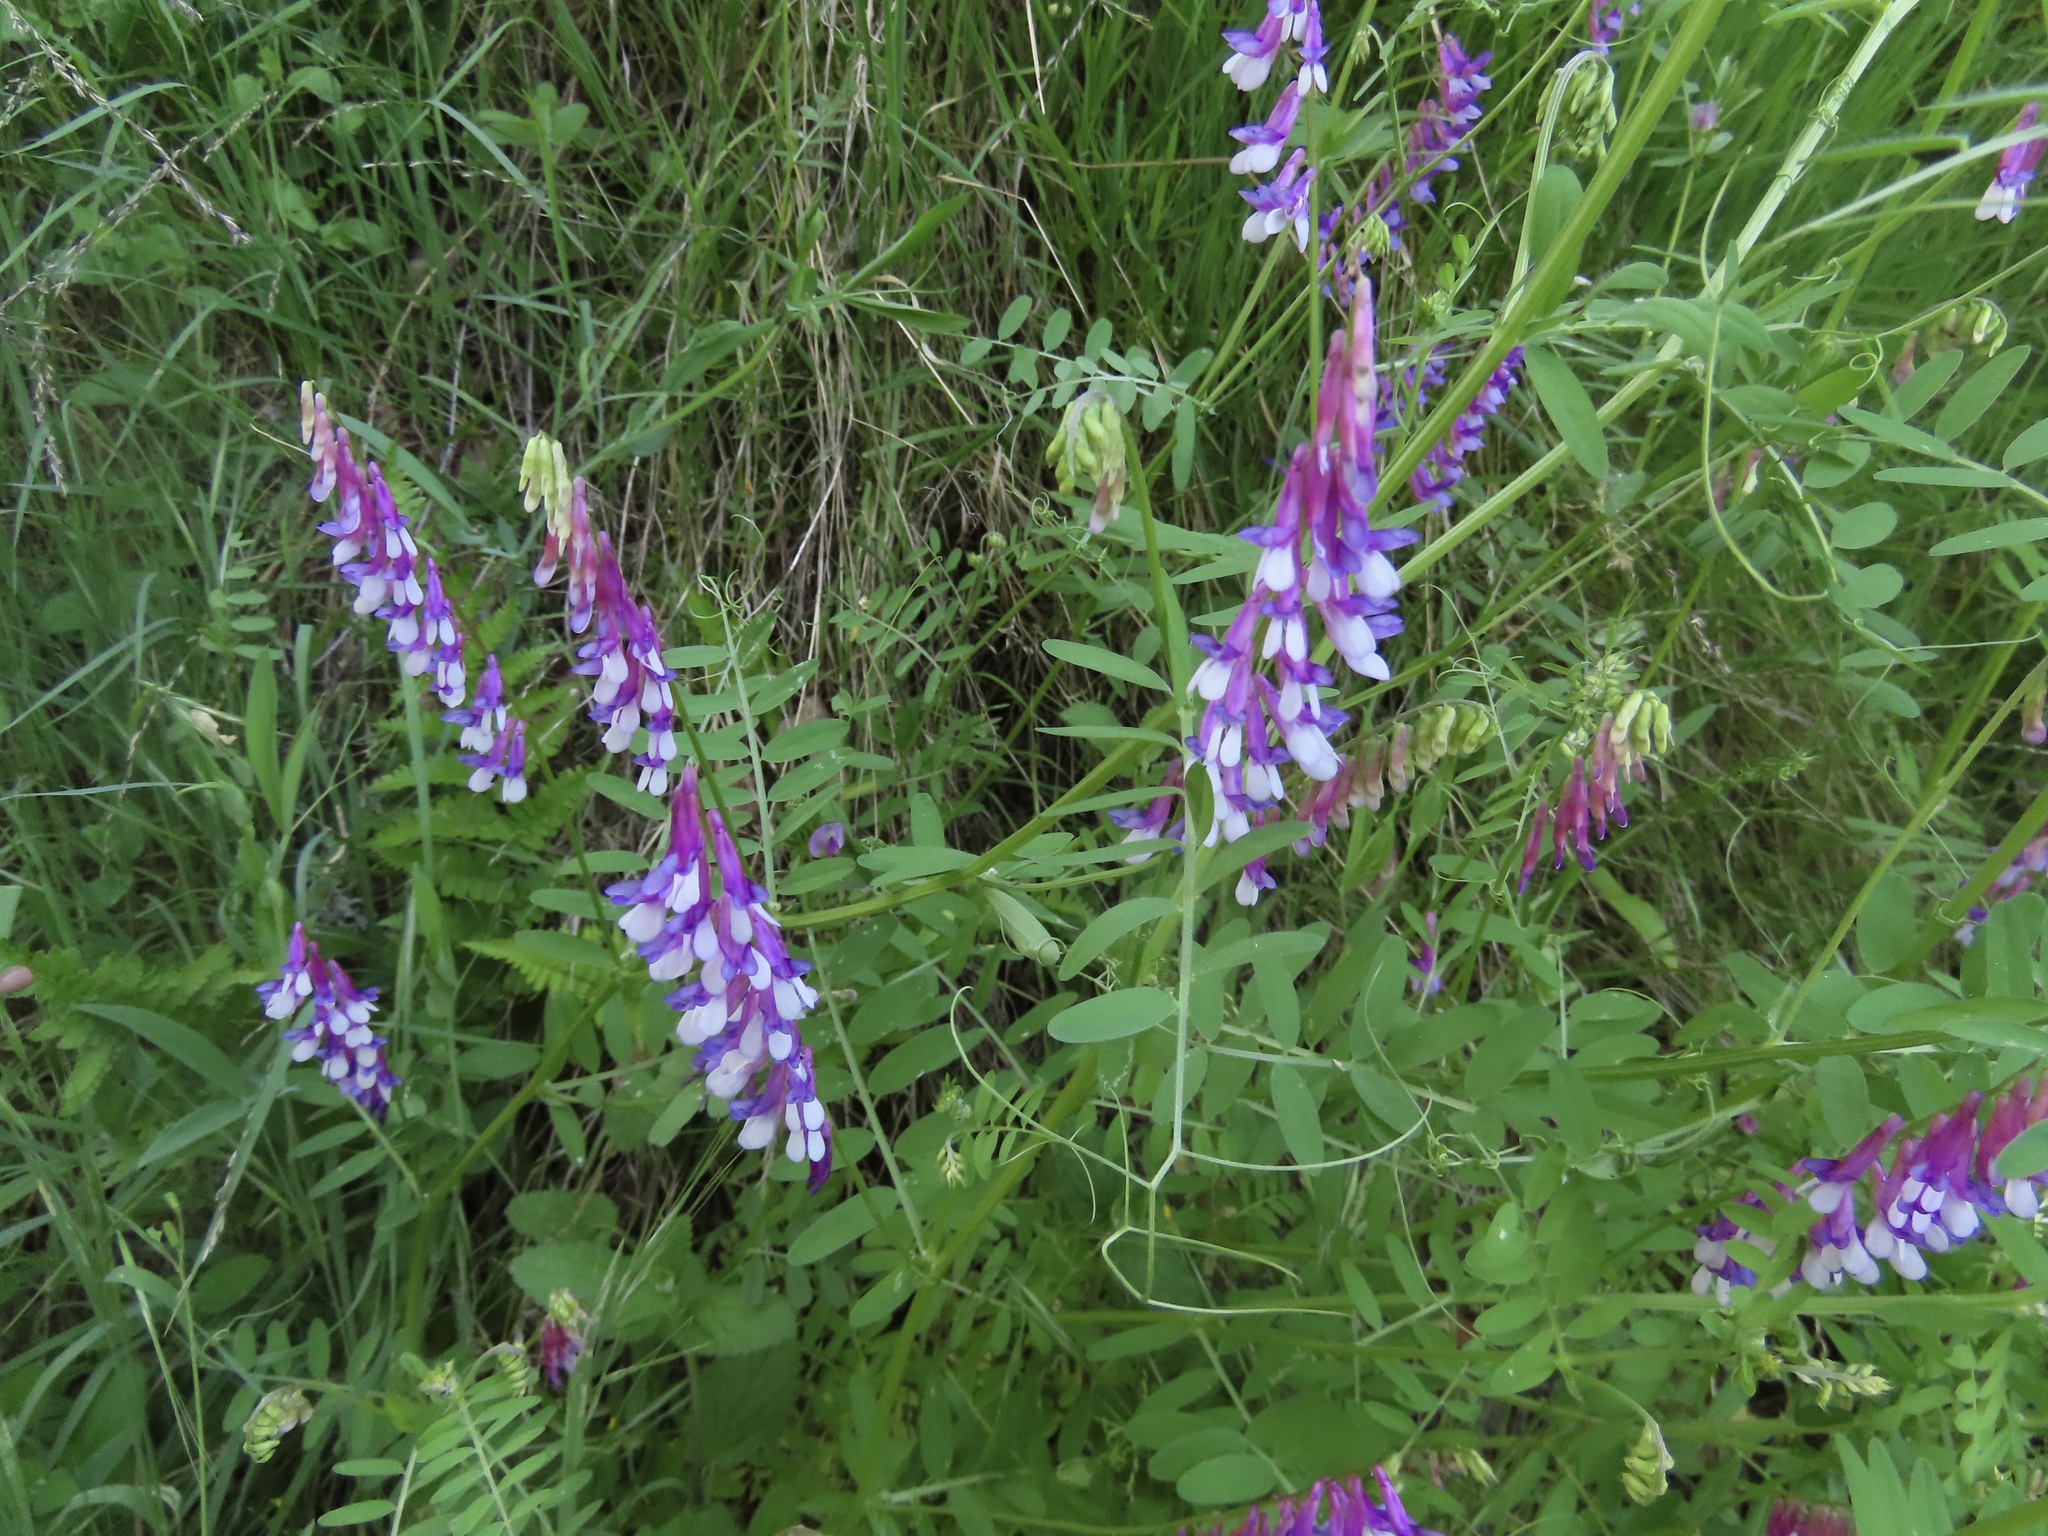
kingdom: Plantae
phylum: Tracheophyta
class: Magnoliopsida
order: Fabales
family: Fabaceae
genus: Vicia
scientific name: Vicia villosa
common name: Fodder vetch
